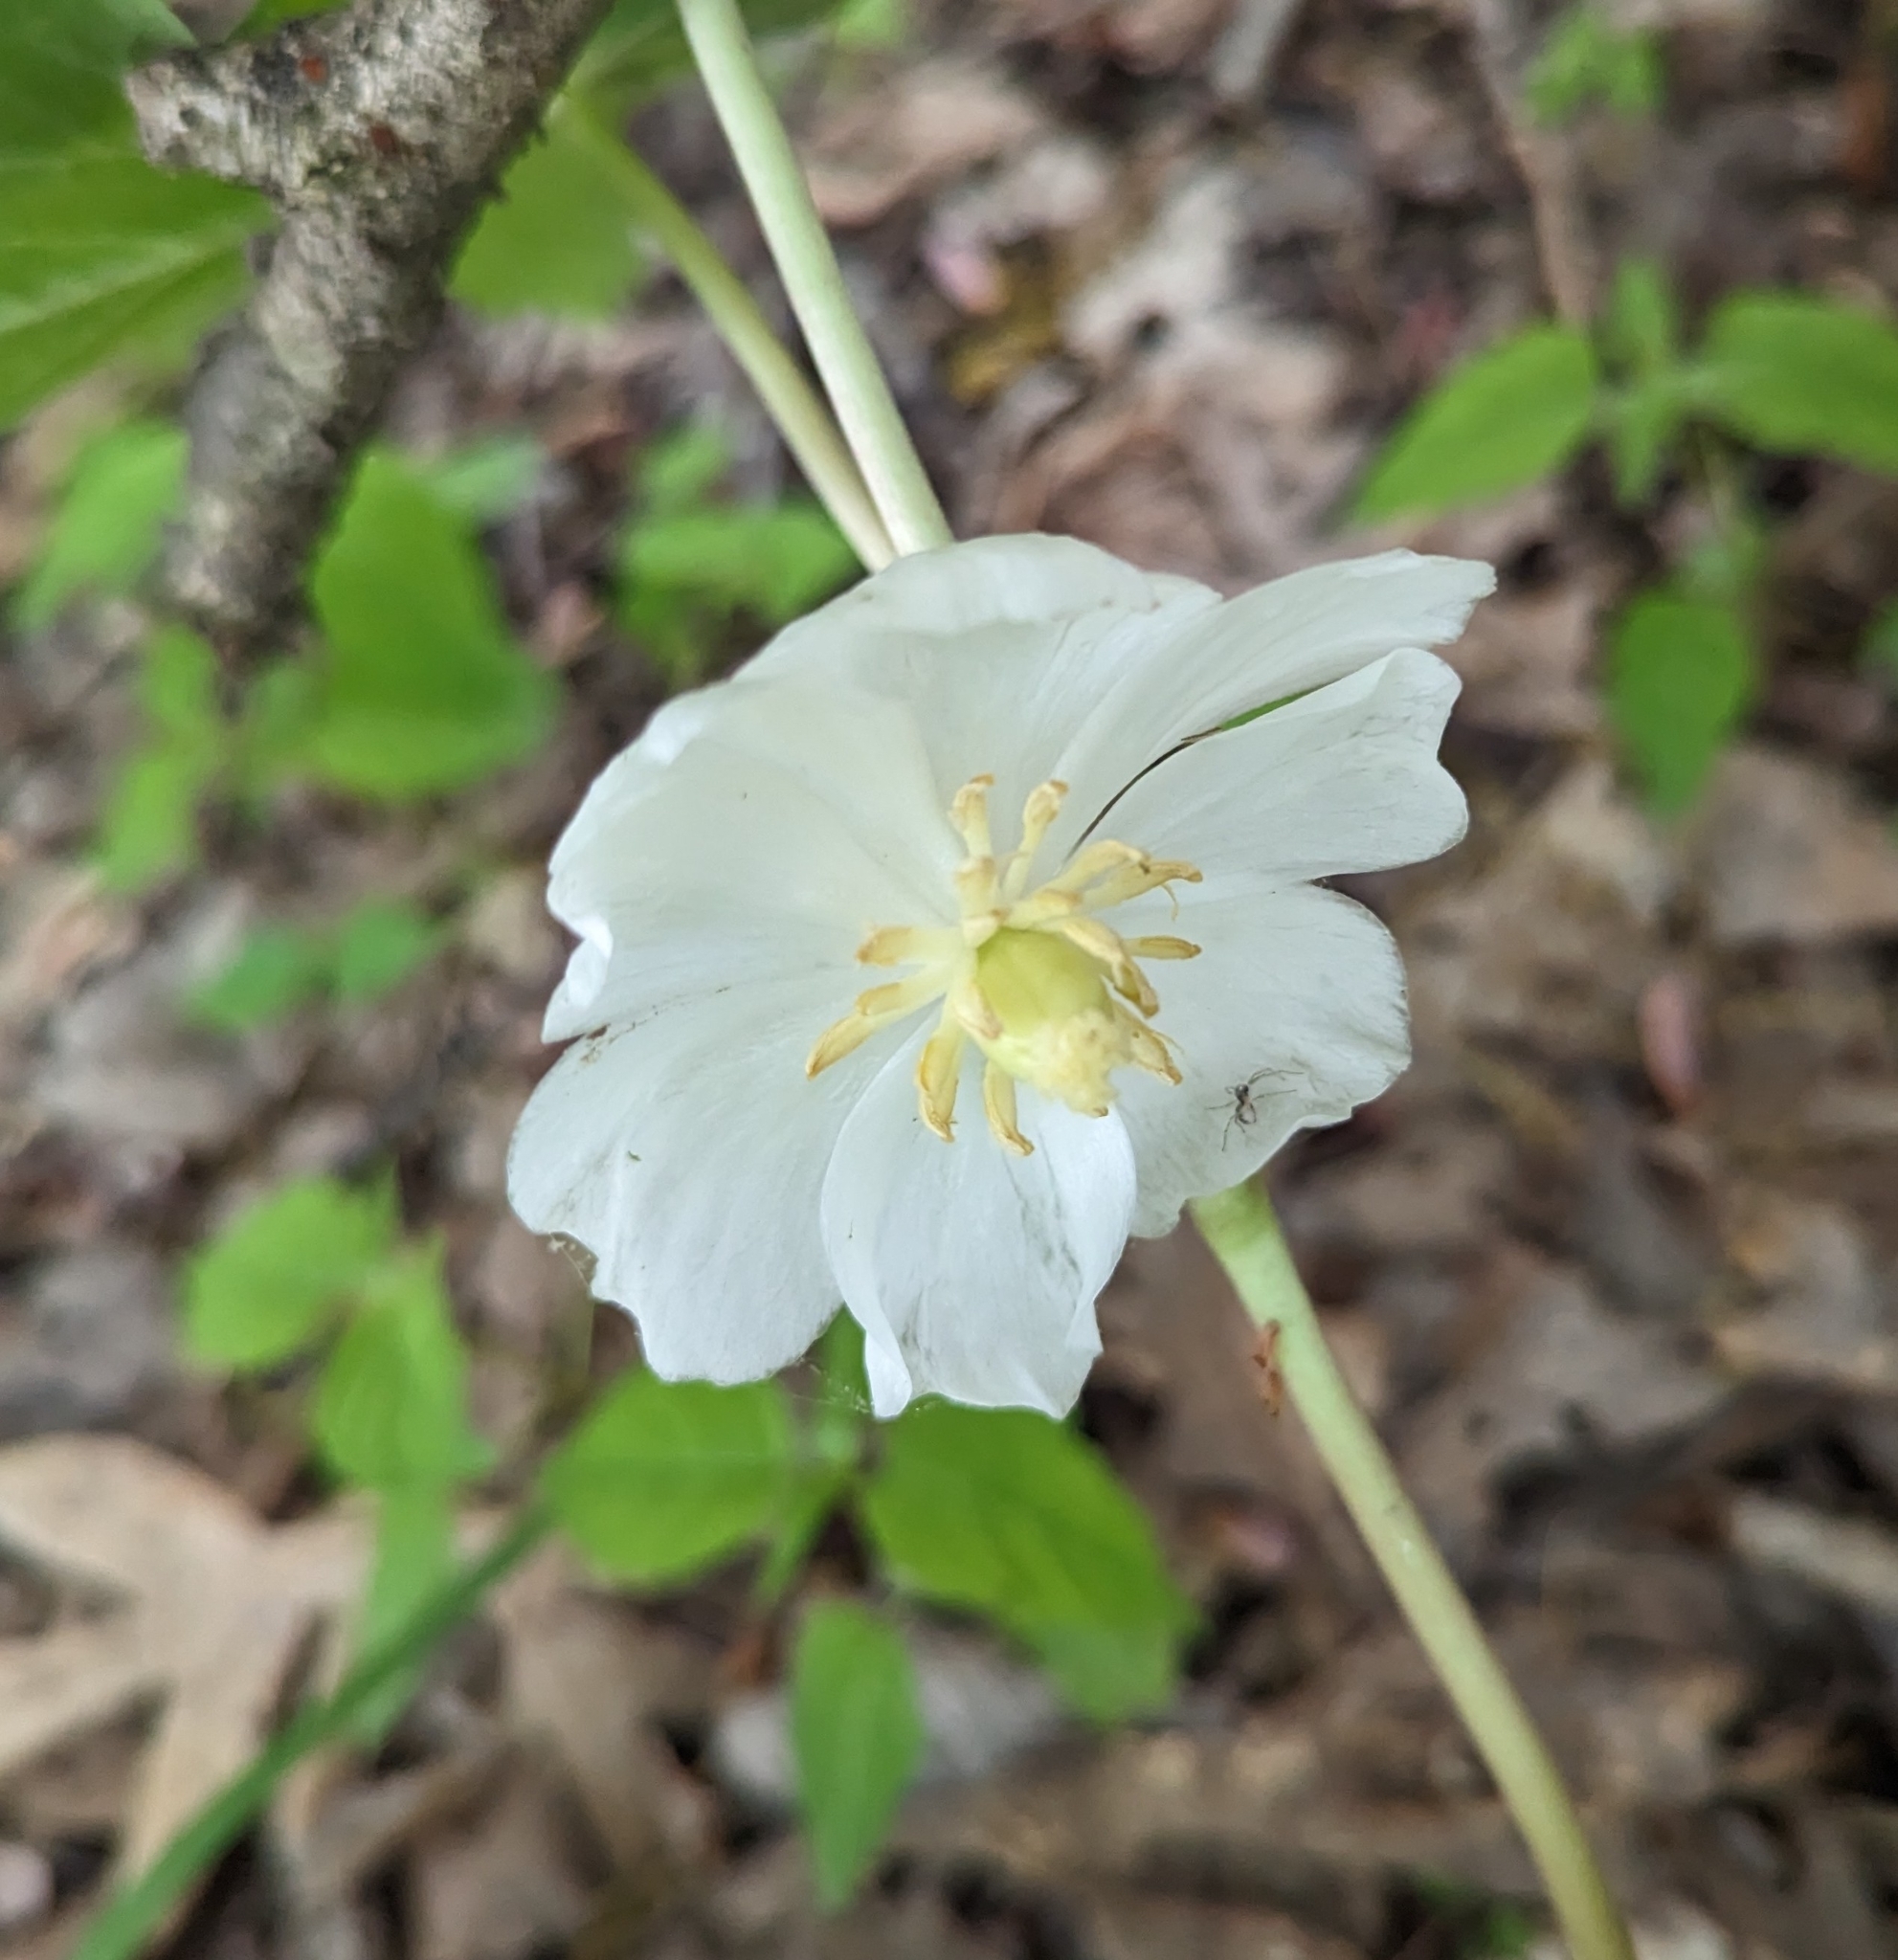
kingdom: Plantae
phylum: Tracheophyta
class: Magnoliopsida
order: Ranunculales
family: Berberidaceae
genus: Podophyllum
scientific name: Podophyllum peltatum
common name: Wild mandrake
